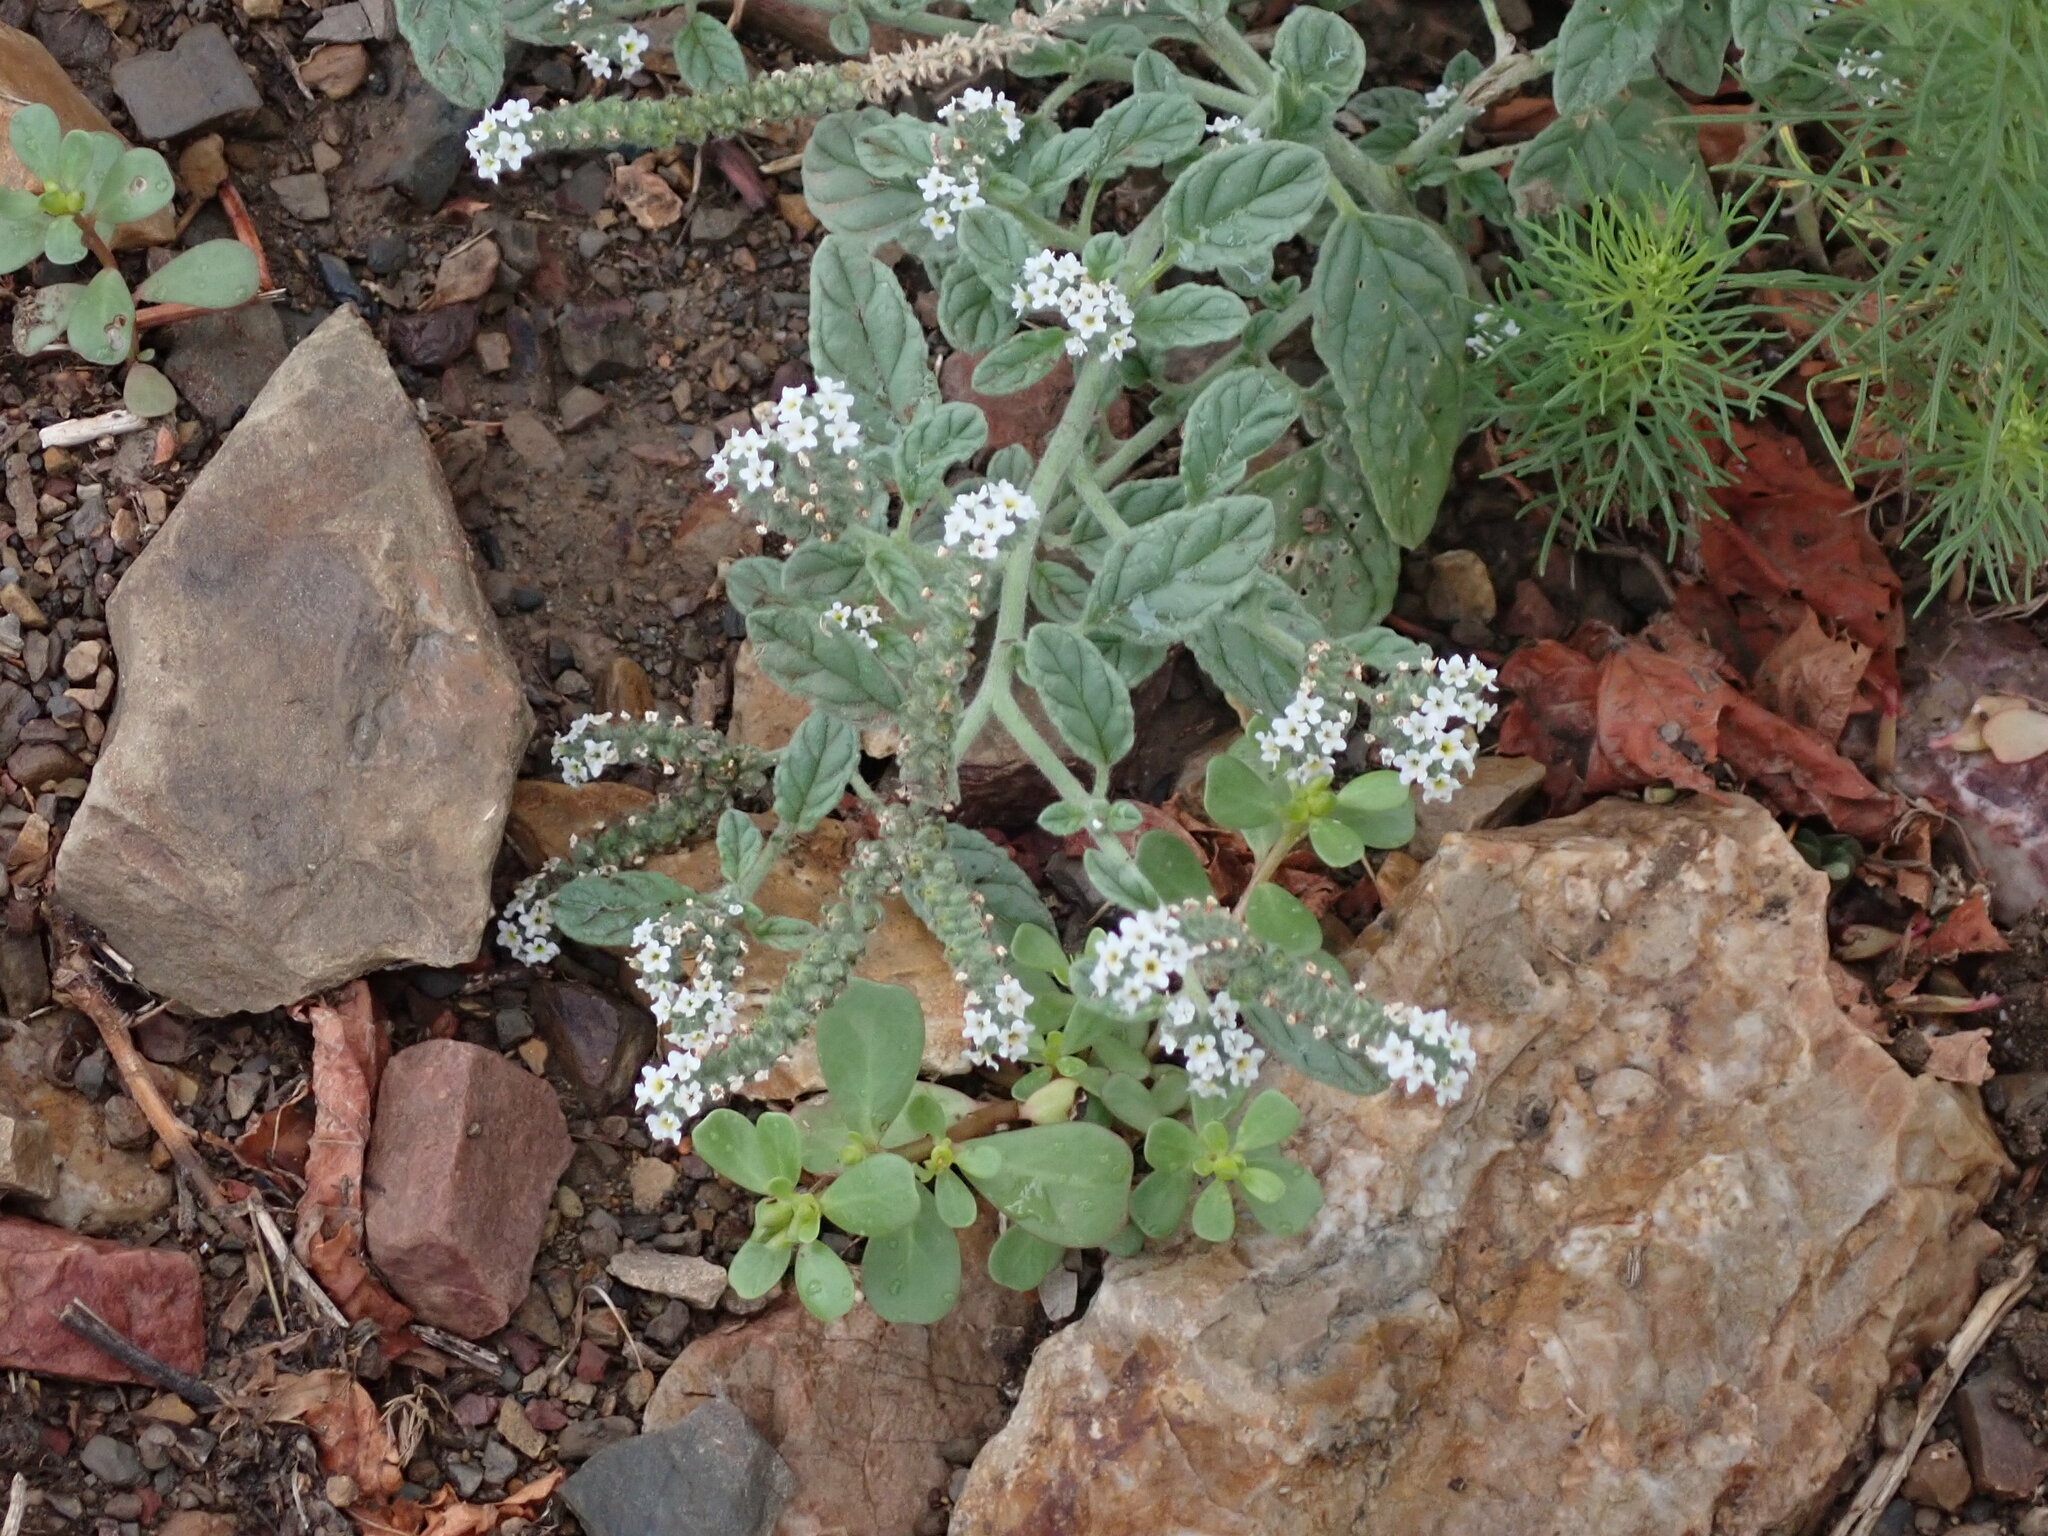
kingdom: Plantae
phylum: Tracheophyta
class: Magnoliopsida
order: Boraginales
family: Heliotropiaceae
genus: Heliotropium
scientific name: Heliotropium europaeum
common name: European heliotrope
